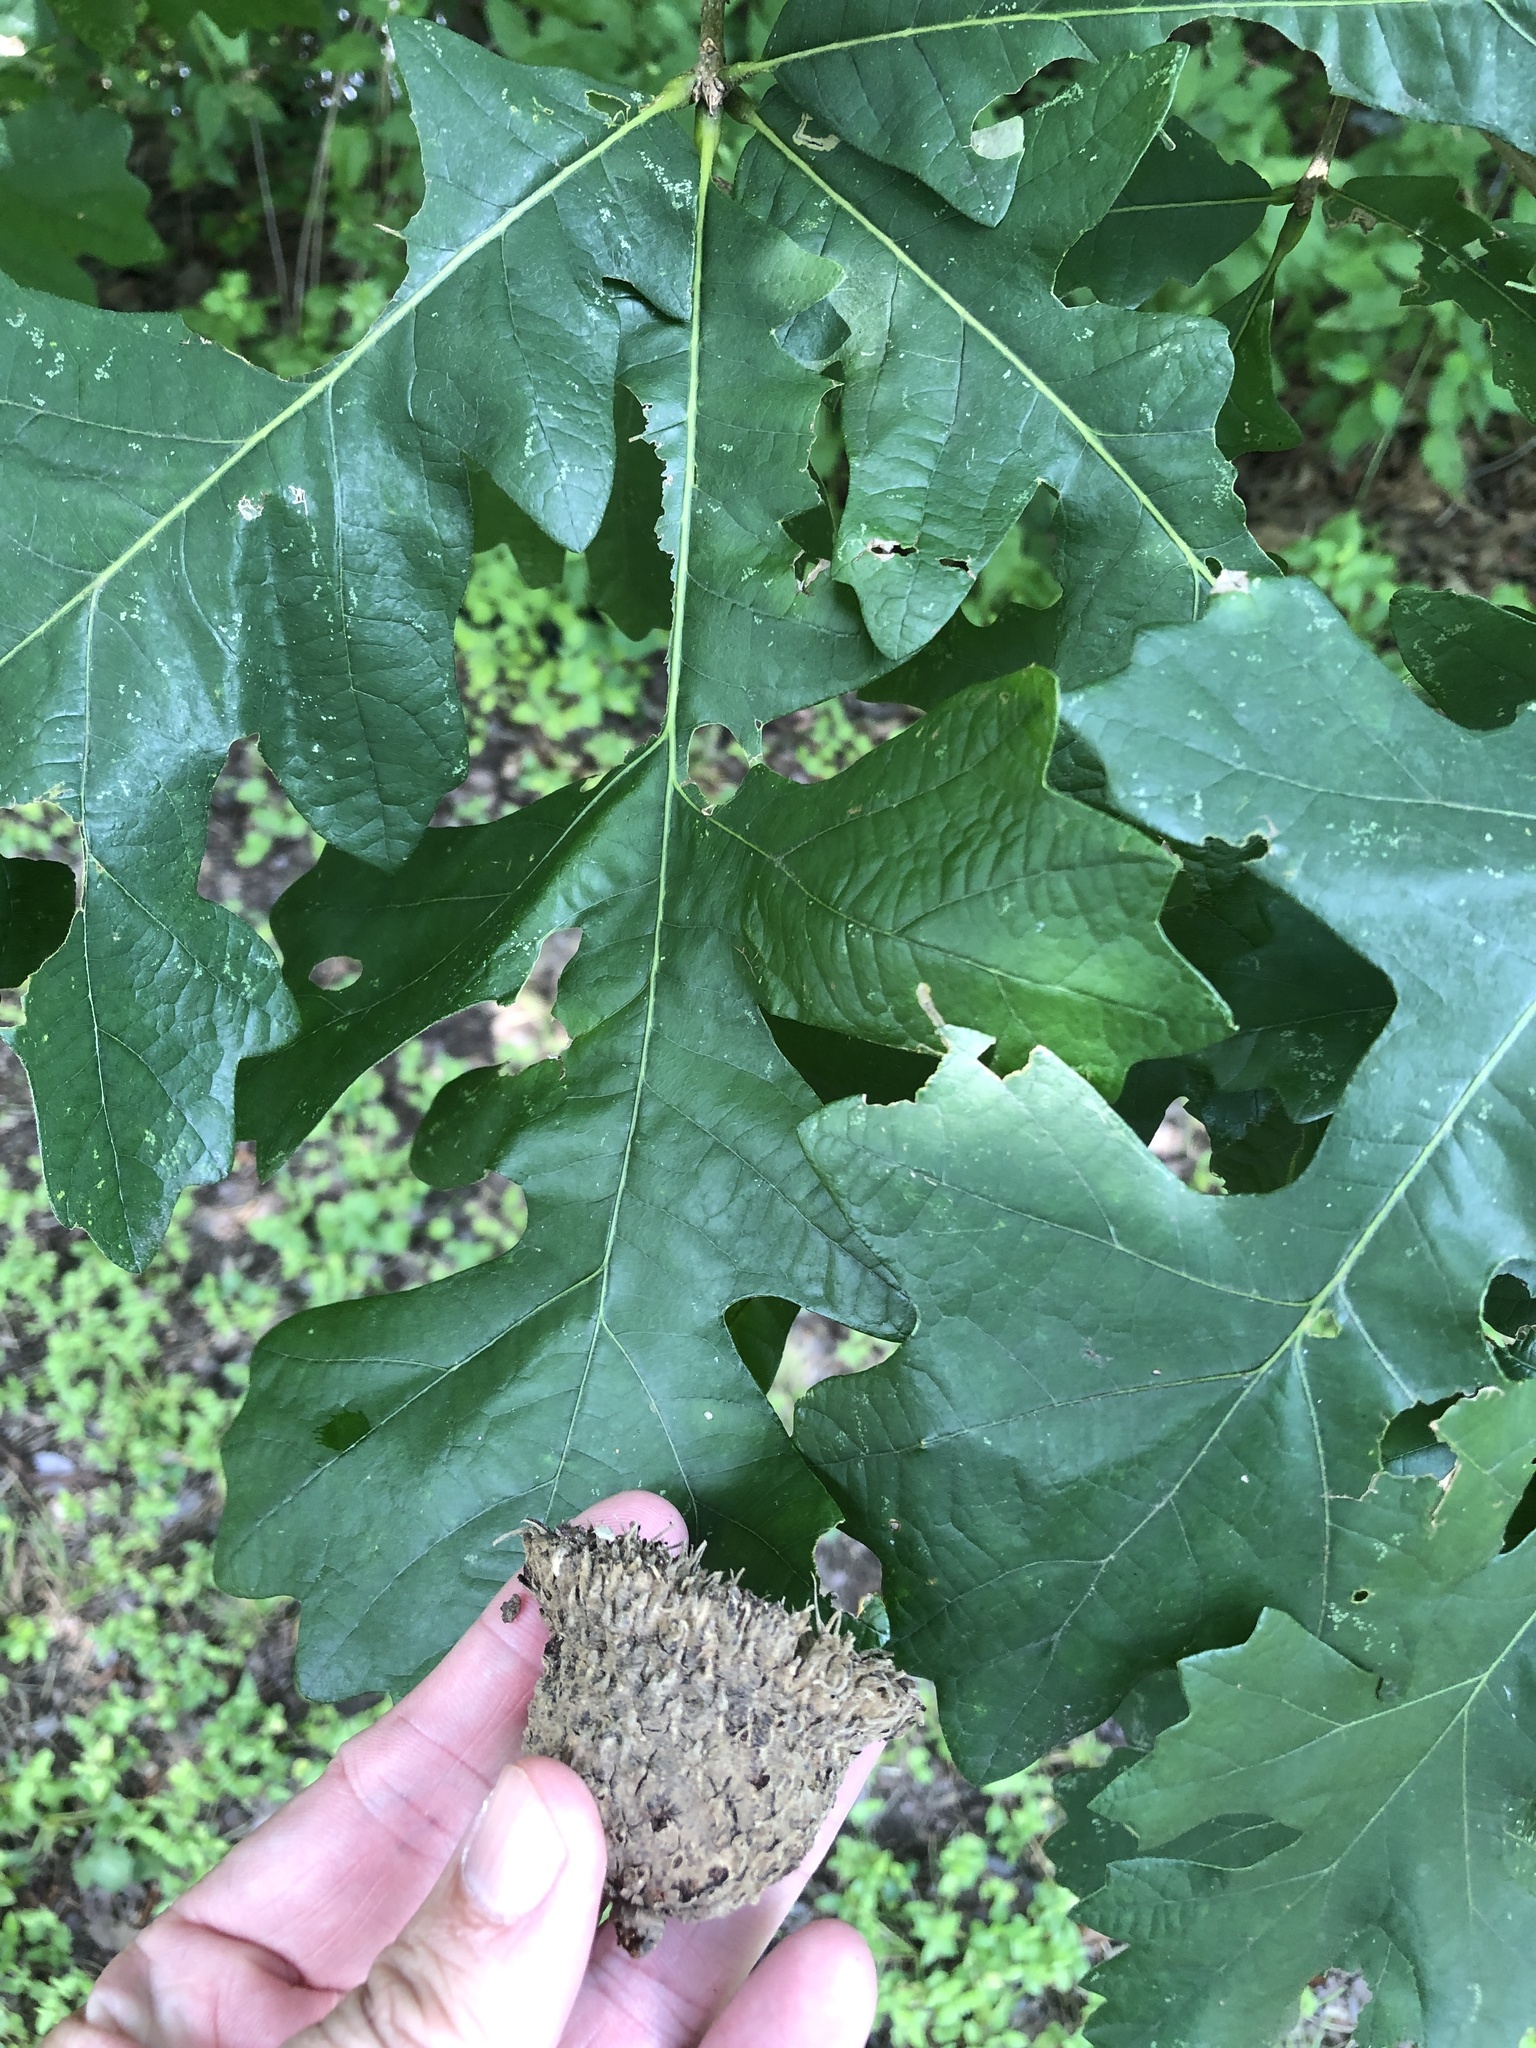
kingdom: Plantae
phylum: Tracheophyta
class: Magnoliopsida
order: Fagales
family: Fagaceae
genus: Quercus
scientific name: Quercus macrocarpa
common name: Bur oak
